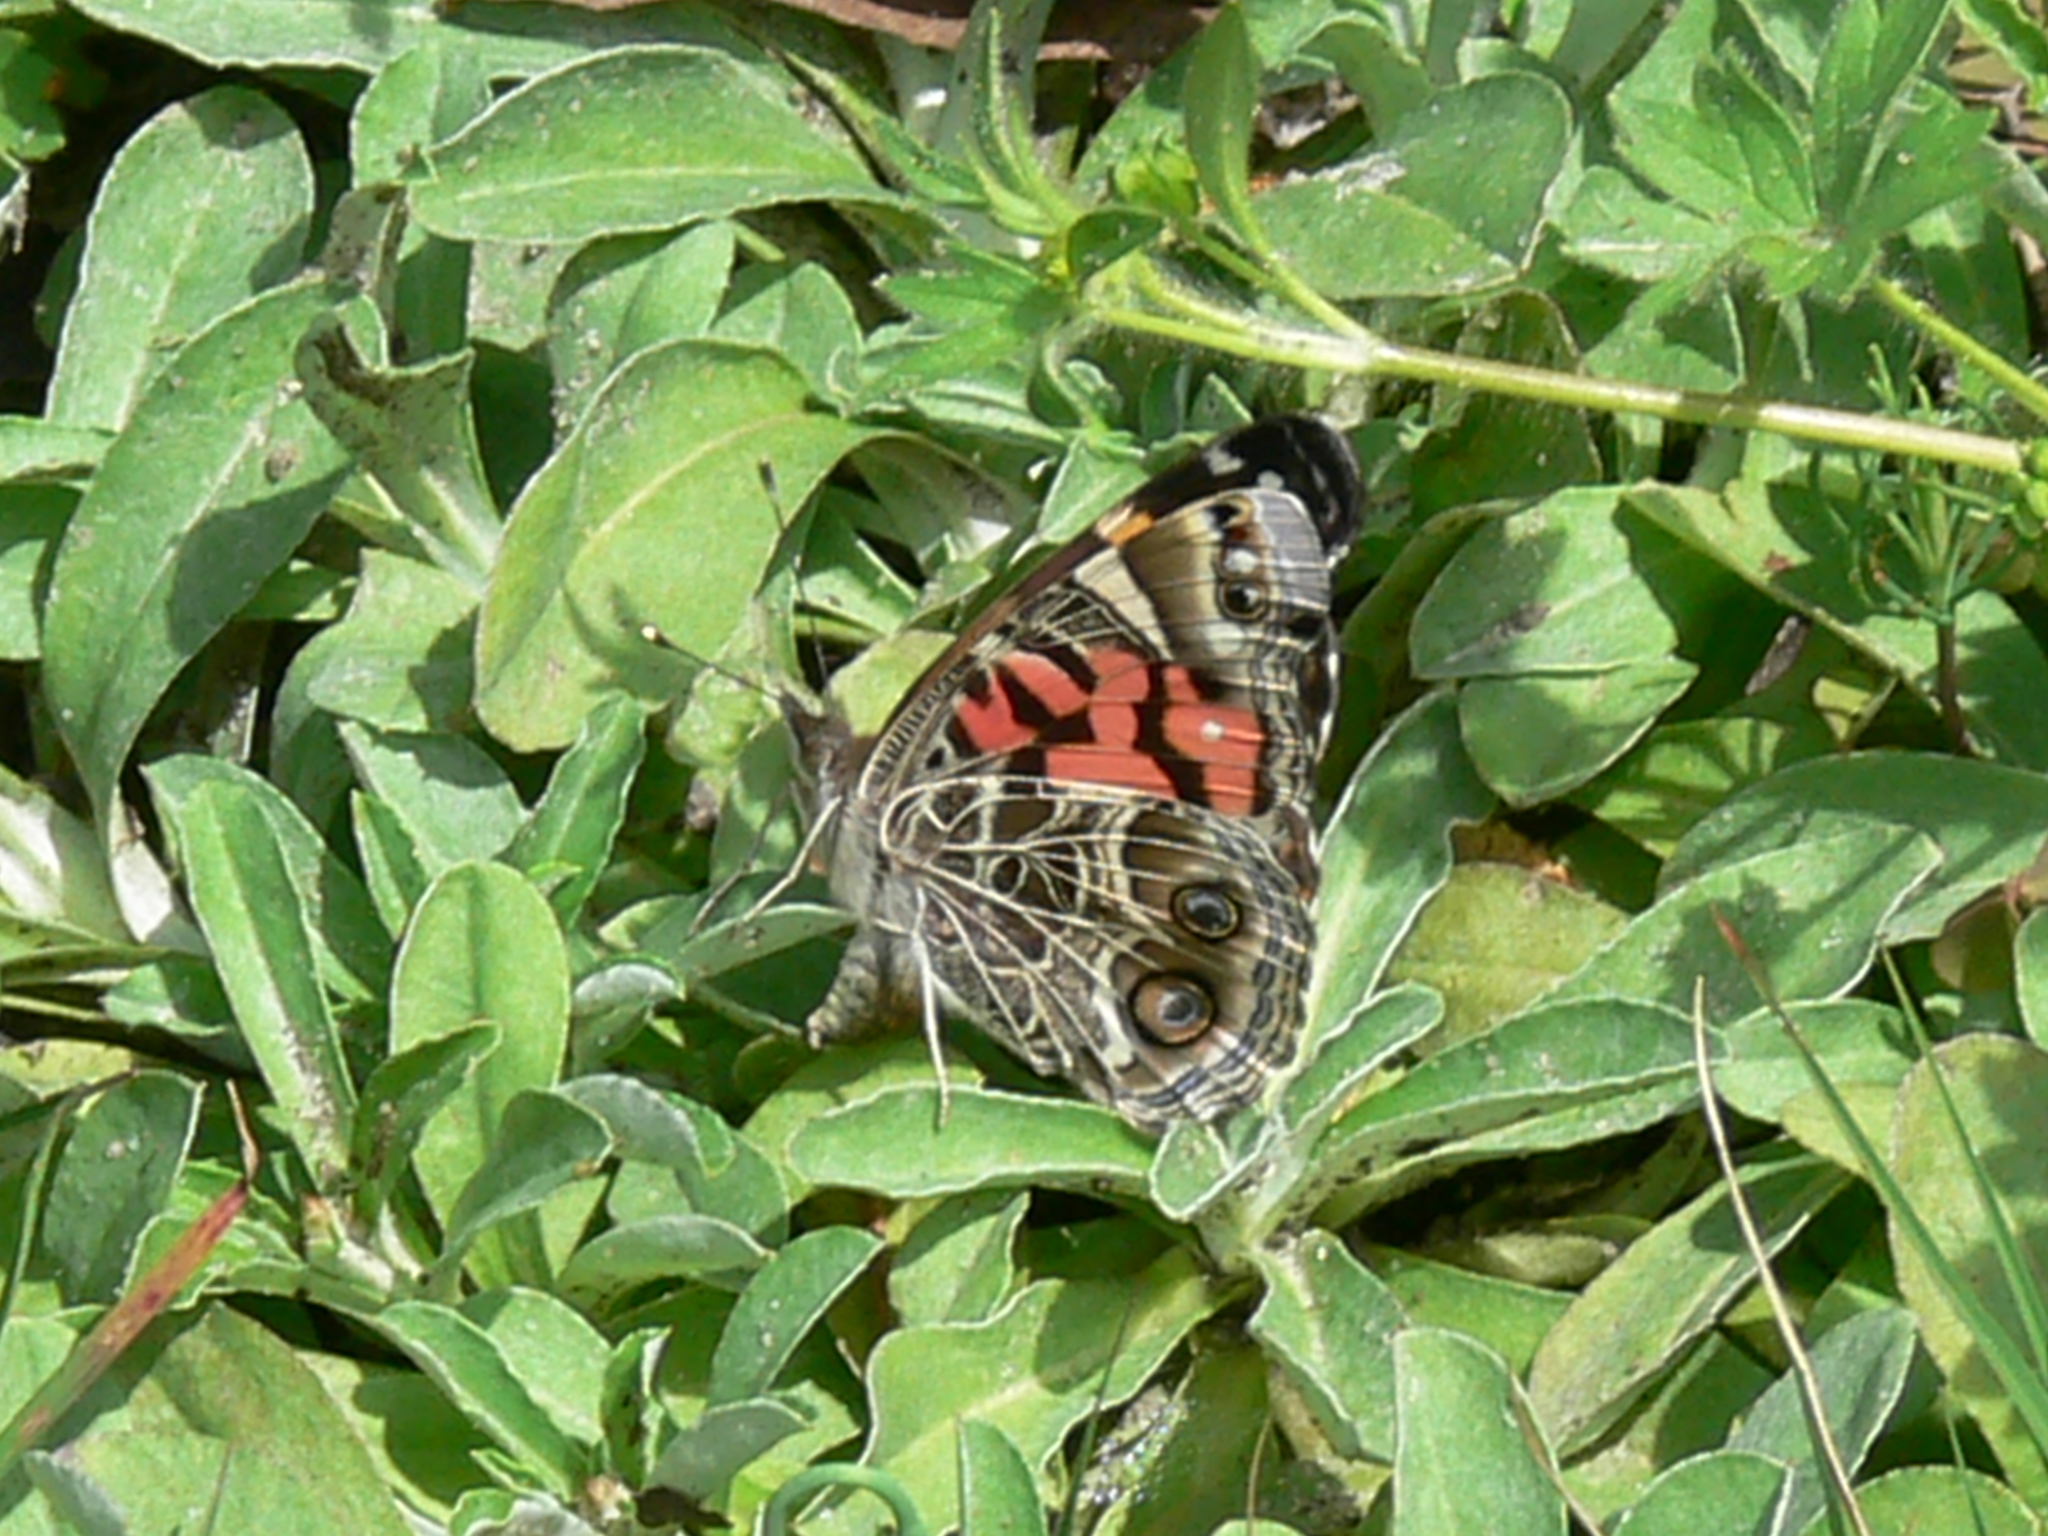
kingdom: Animalia
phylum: Arthropoda
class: Insecta
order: Lepidoptera
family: Nymphalidae
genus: Vanessa
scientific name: Vanessa virginiensis
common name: American lady
